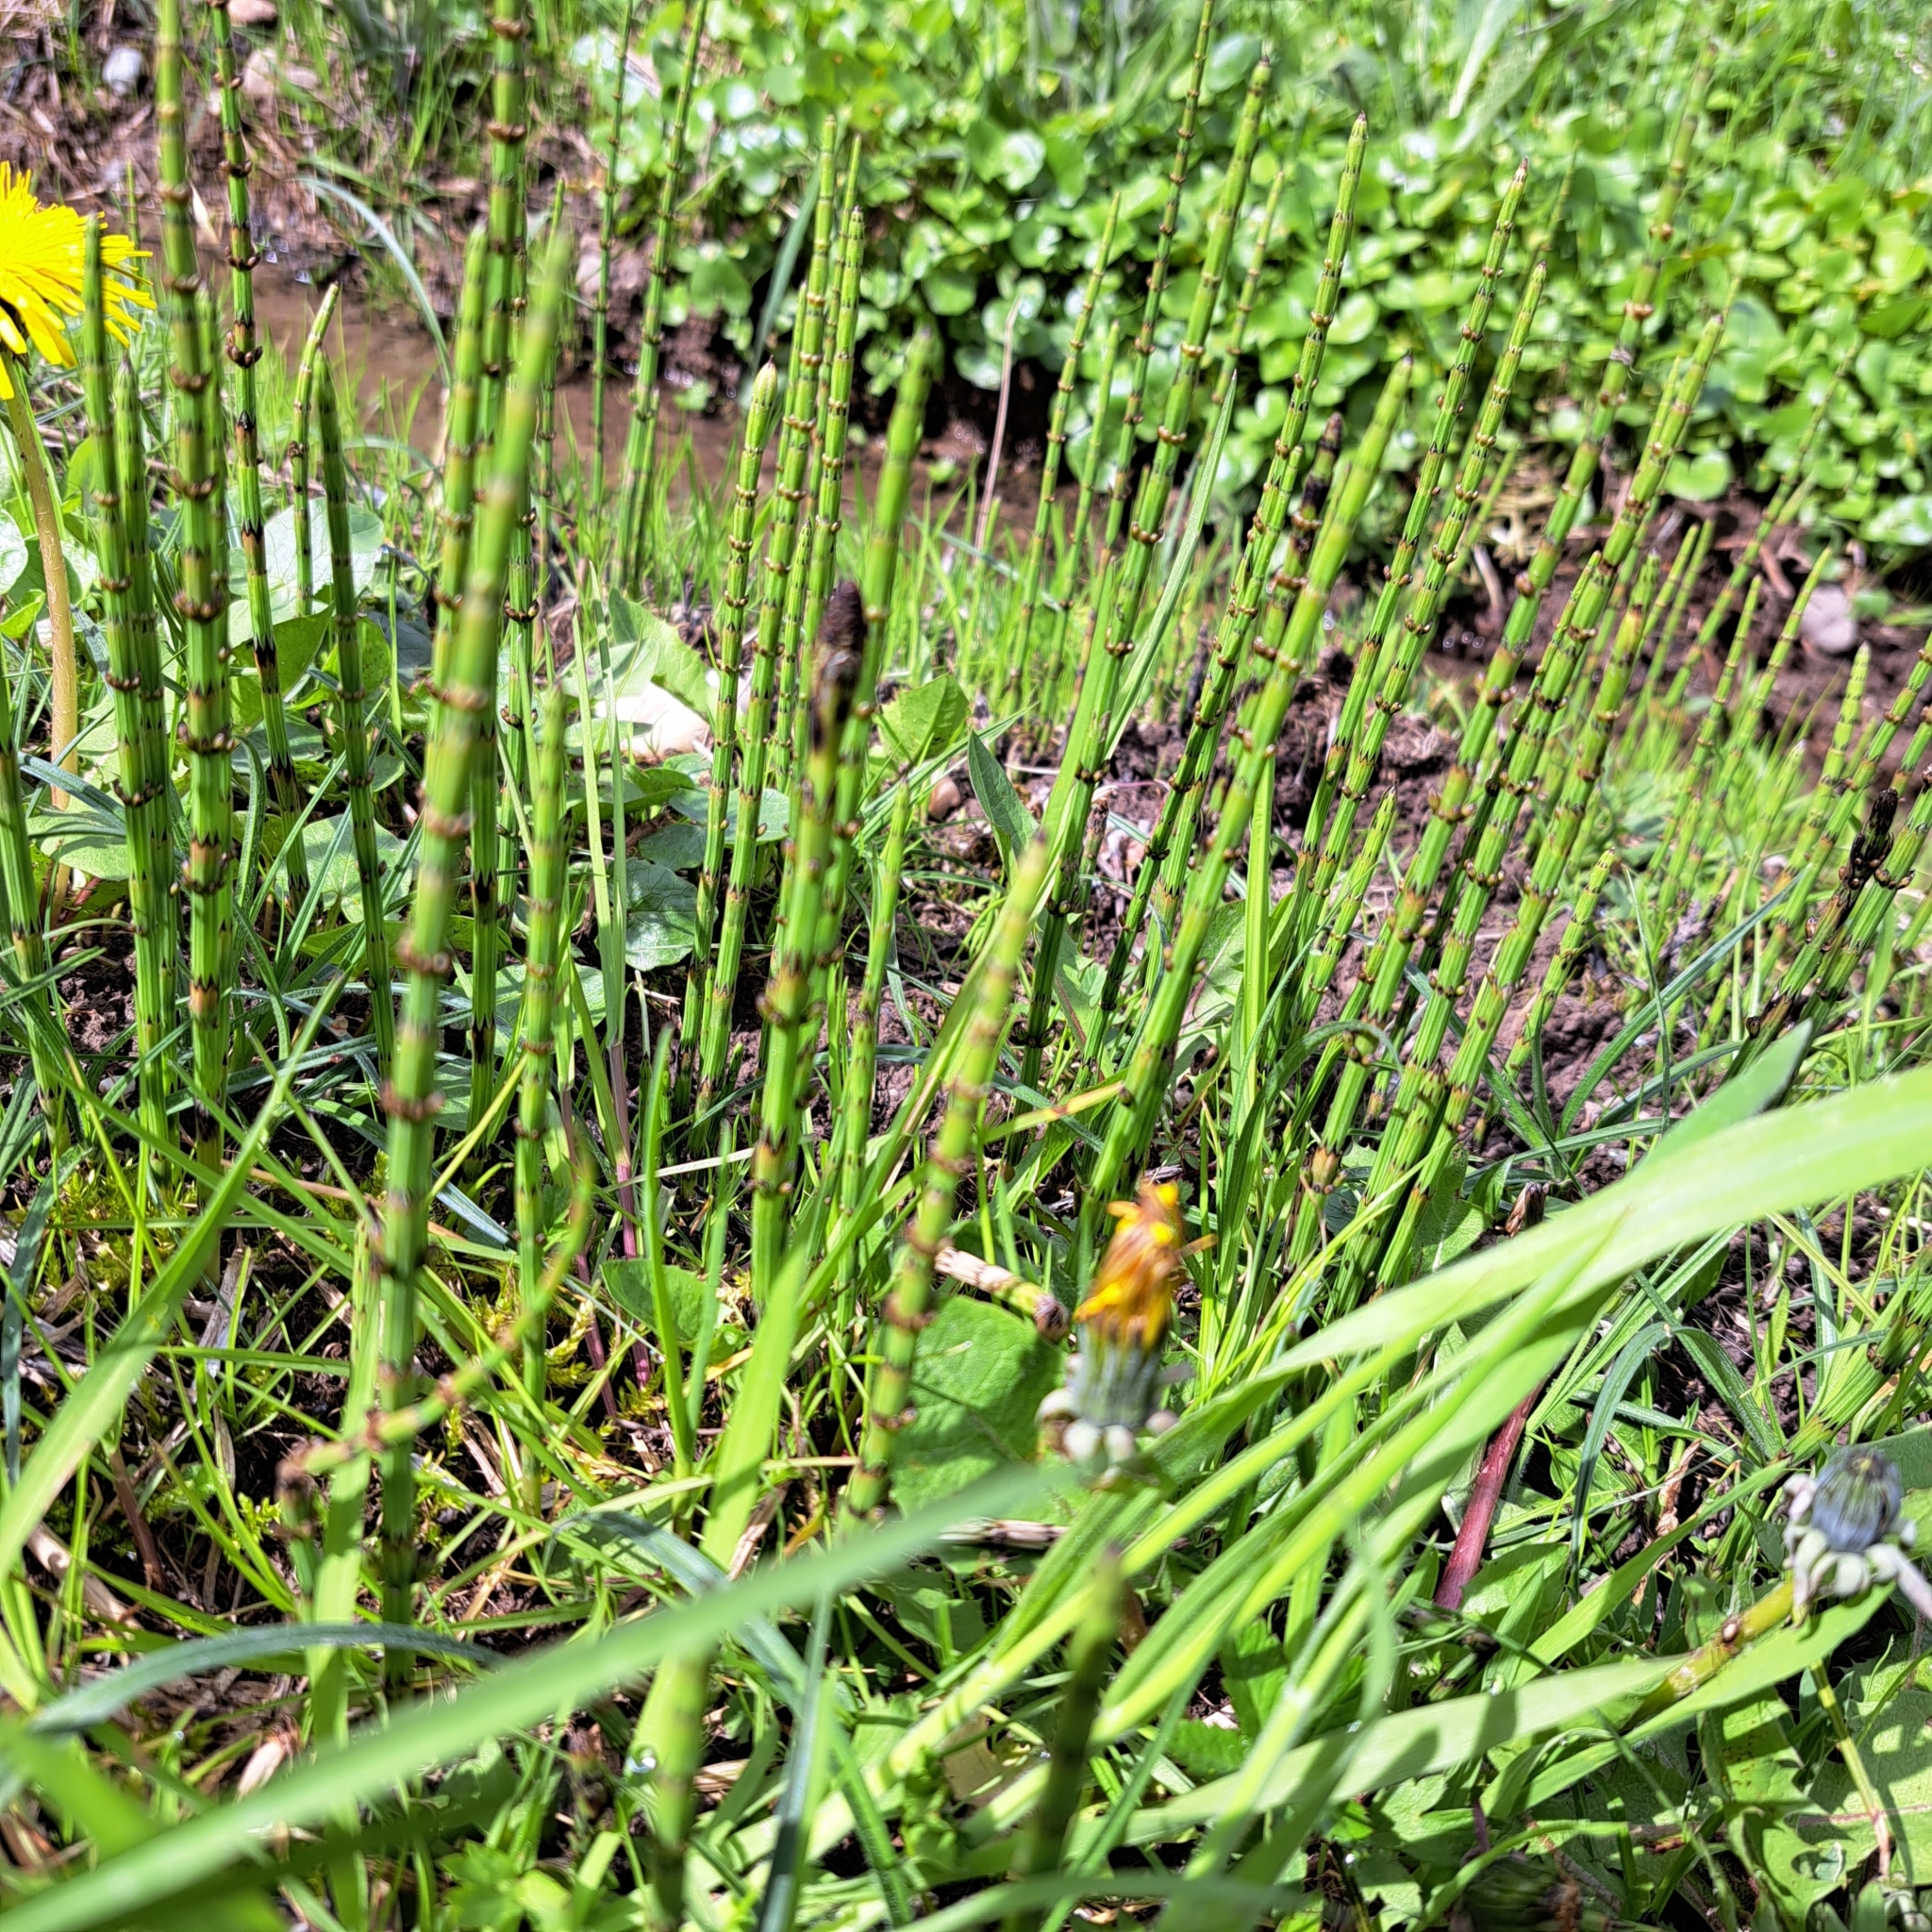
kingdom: Plantae
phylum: Tracheophyta
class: Polypodiopsida
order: Equisetales
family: Equisetaceae
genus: Equisetum
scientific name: Equisetum palustre
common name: Marsh horsetail
